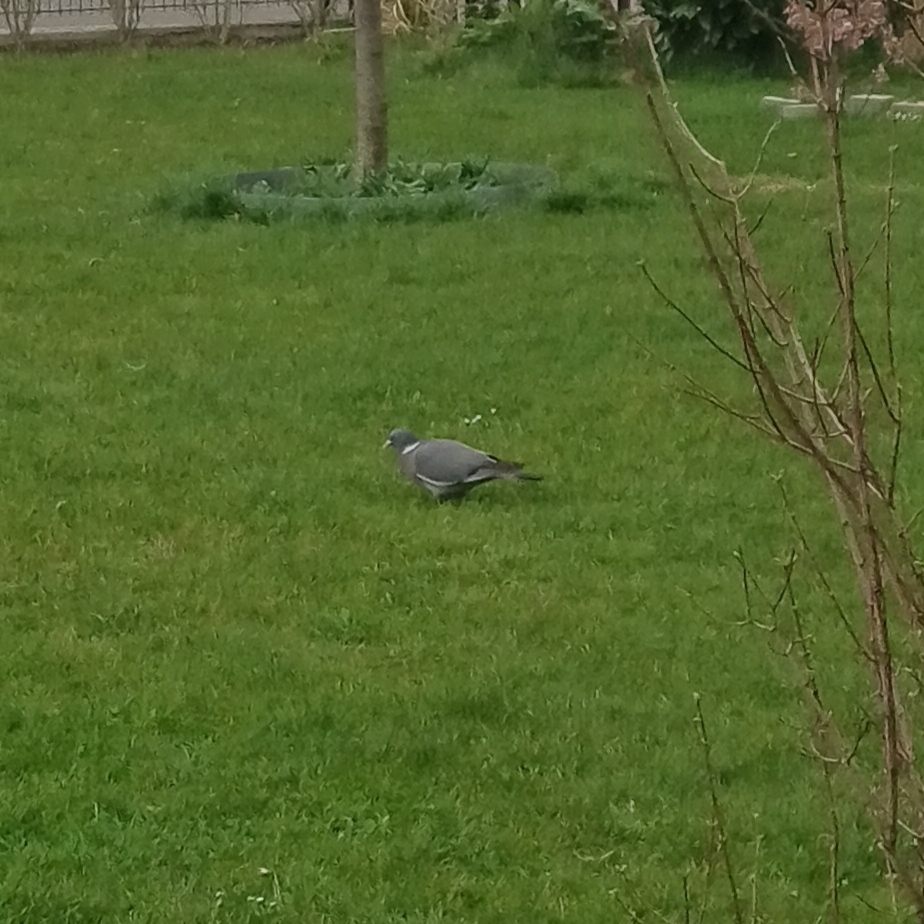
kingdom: Animalia
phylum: Chordata
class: Aves
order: Columbiformes
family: Columbidae
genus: Columba
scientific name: Columba palumbus
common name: Common wood pigeon
